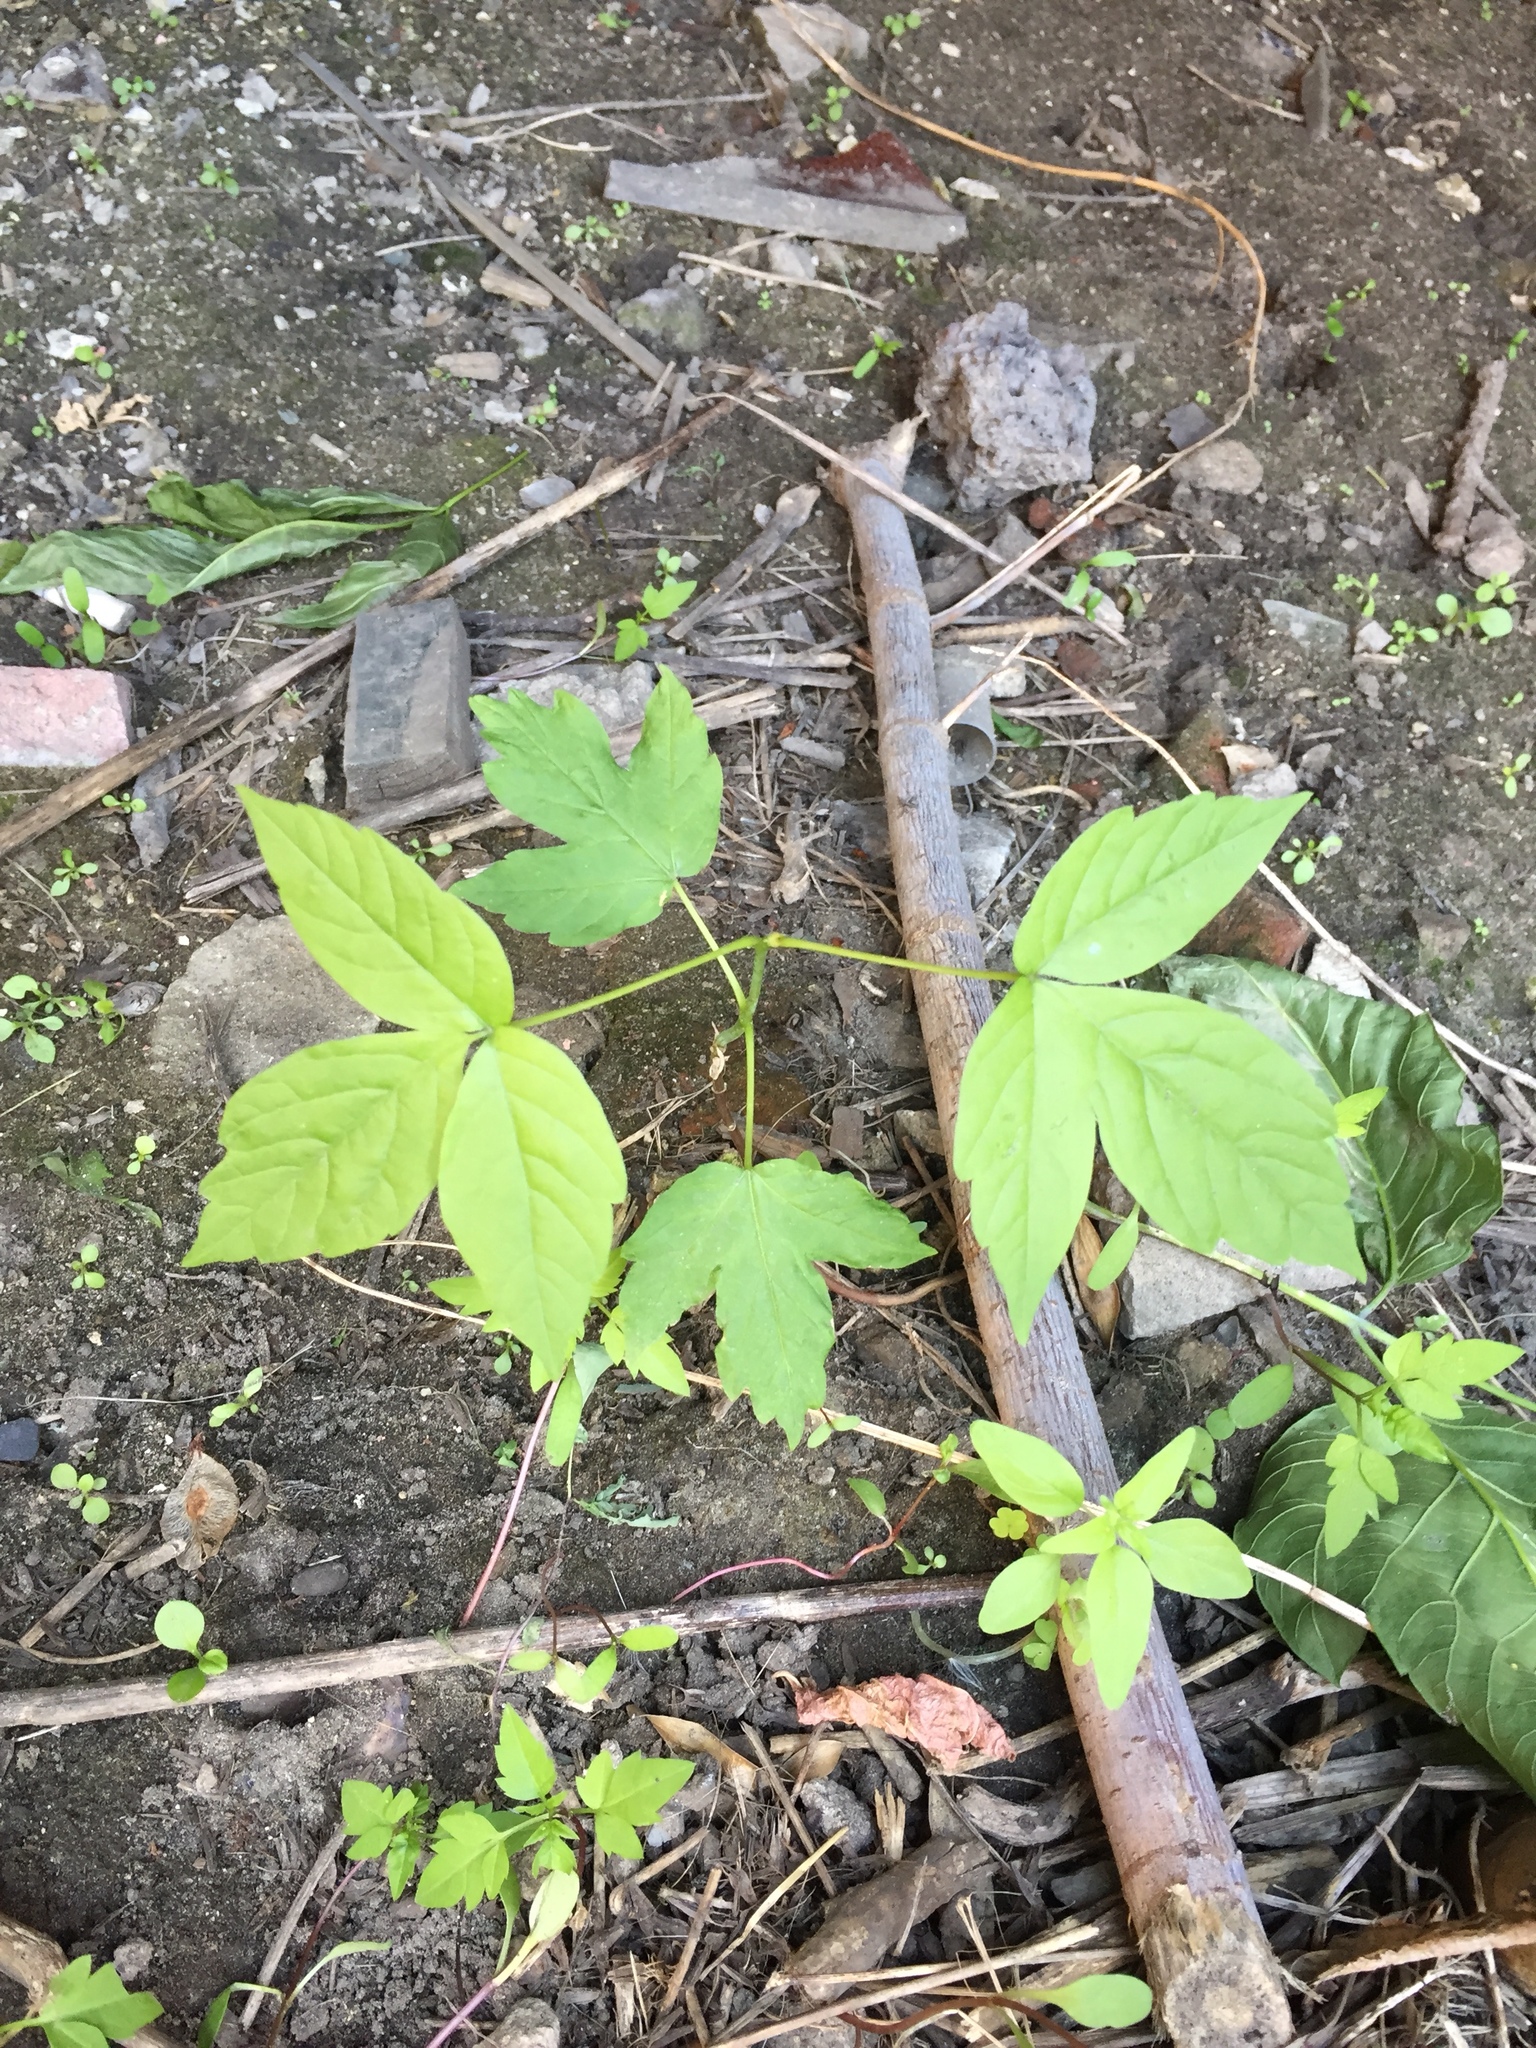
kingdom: Plantae
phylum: Tracheophyta
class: Magnoliopsida
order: Sapindales
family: Sapindaceae
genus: Acer
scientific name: Acer negundo
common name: Ashleaf maple
